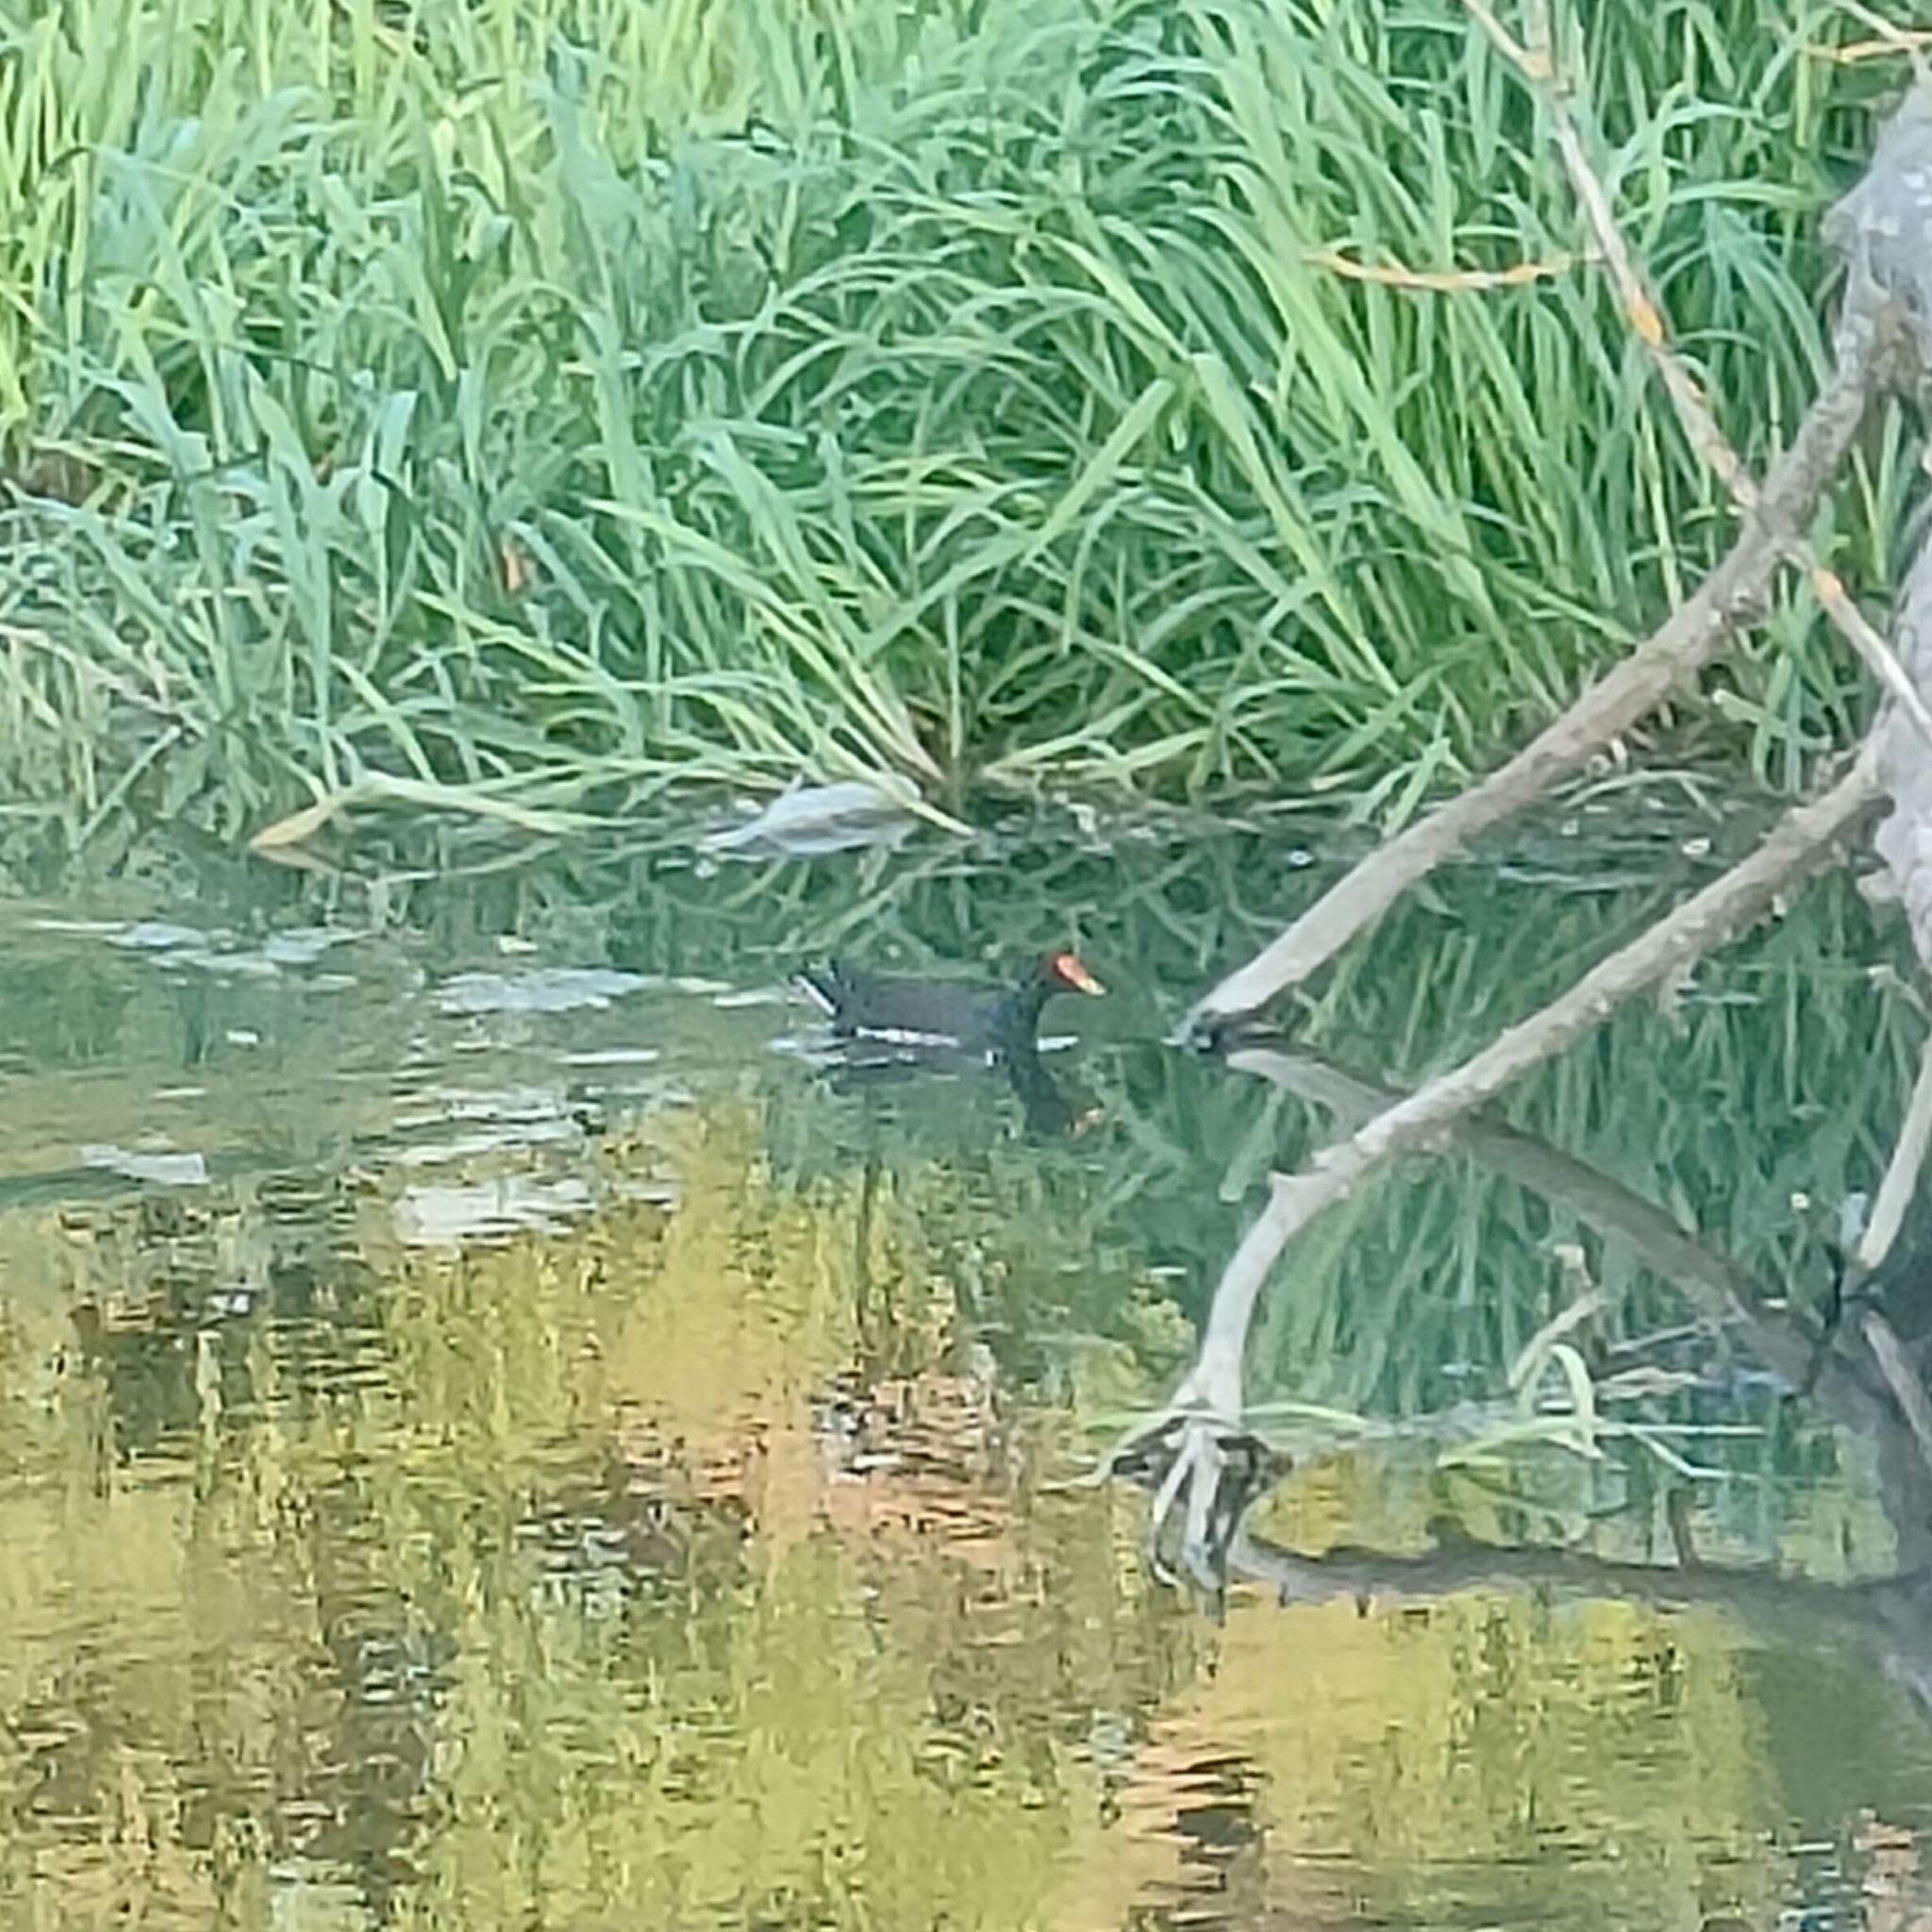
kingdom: Animalia
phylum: Chordata
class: Aves
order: Gruiformes
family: Rallidae
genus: Gallinula
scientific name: Gallinula chloropus
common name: Common moorhen
